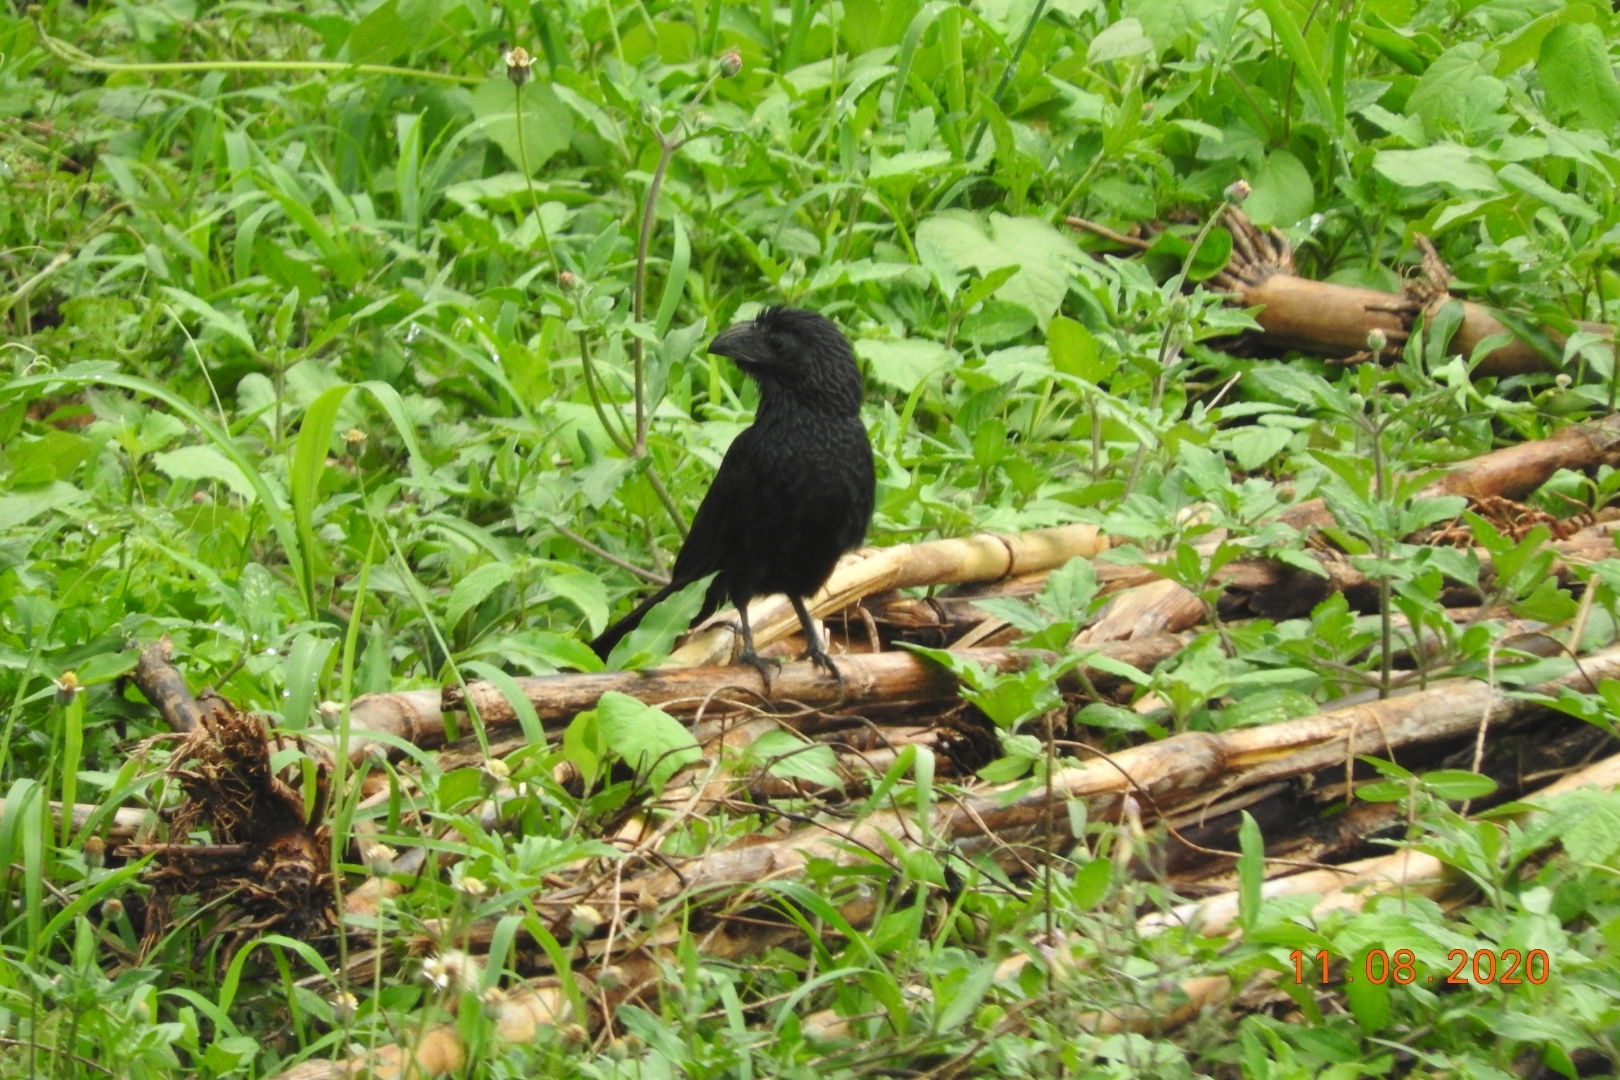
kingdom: Animalia
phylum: Chordata
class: Aves
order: Cuculiformes
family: Cuculidae
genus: Crotophaga
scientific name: Crotophaga sulcirostris
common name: Groove-billed ani
